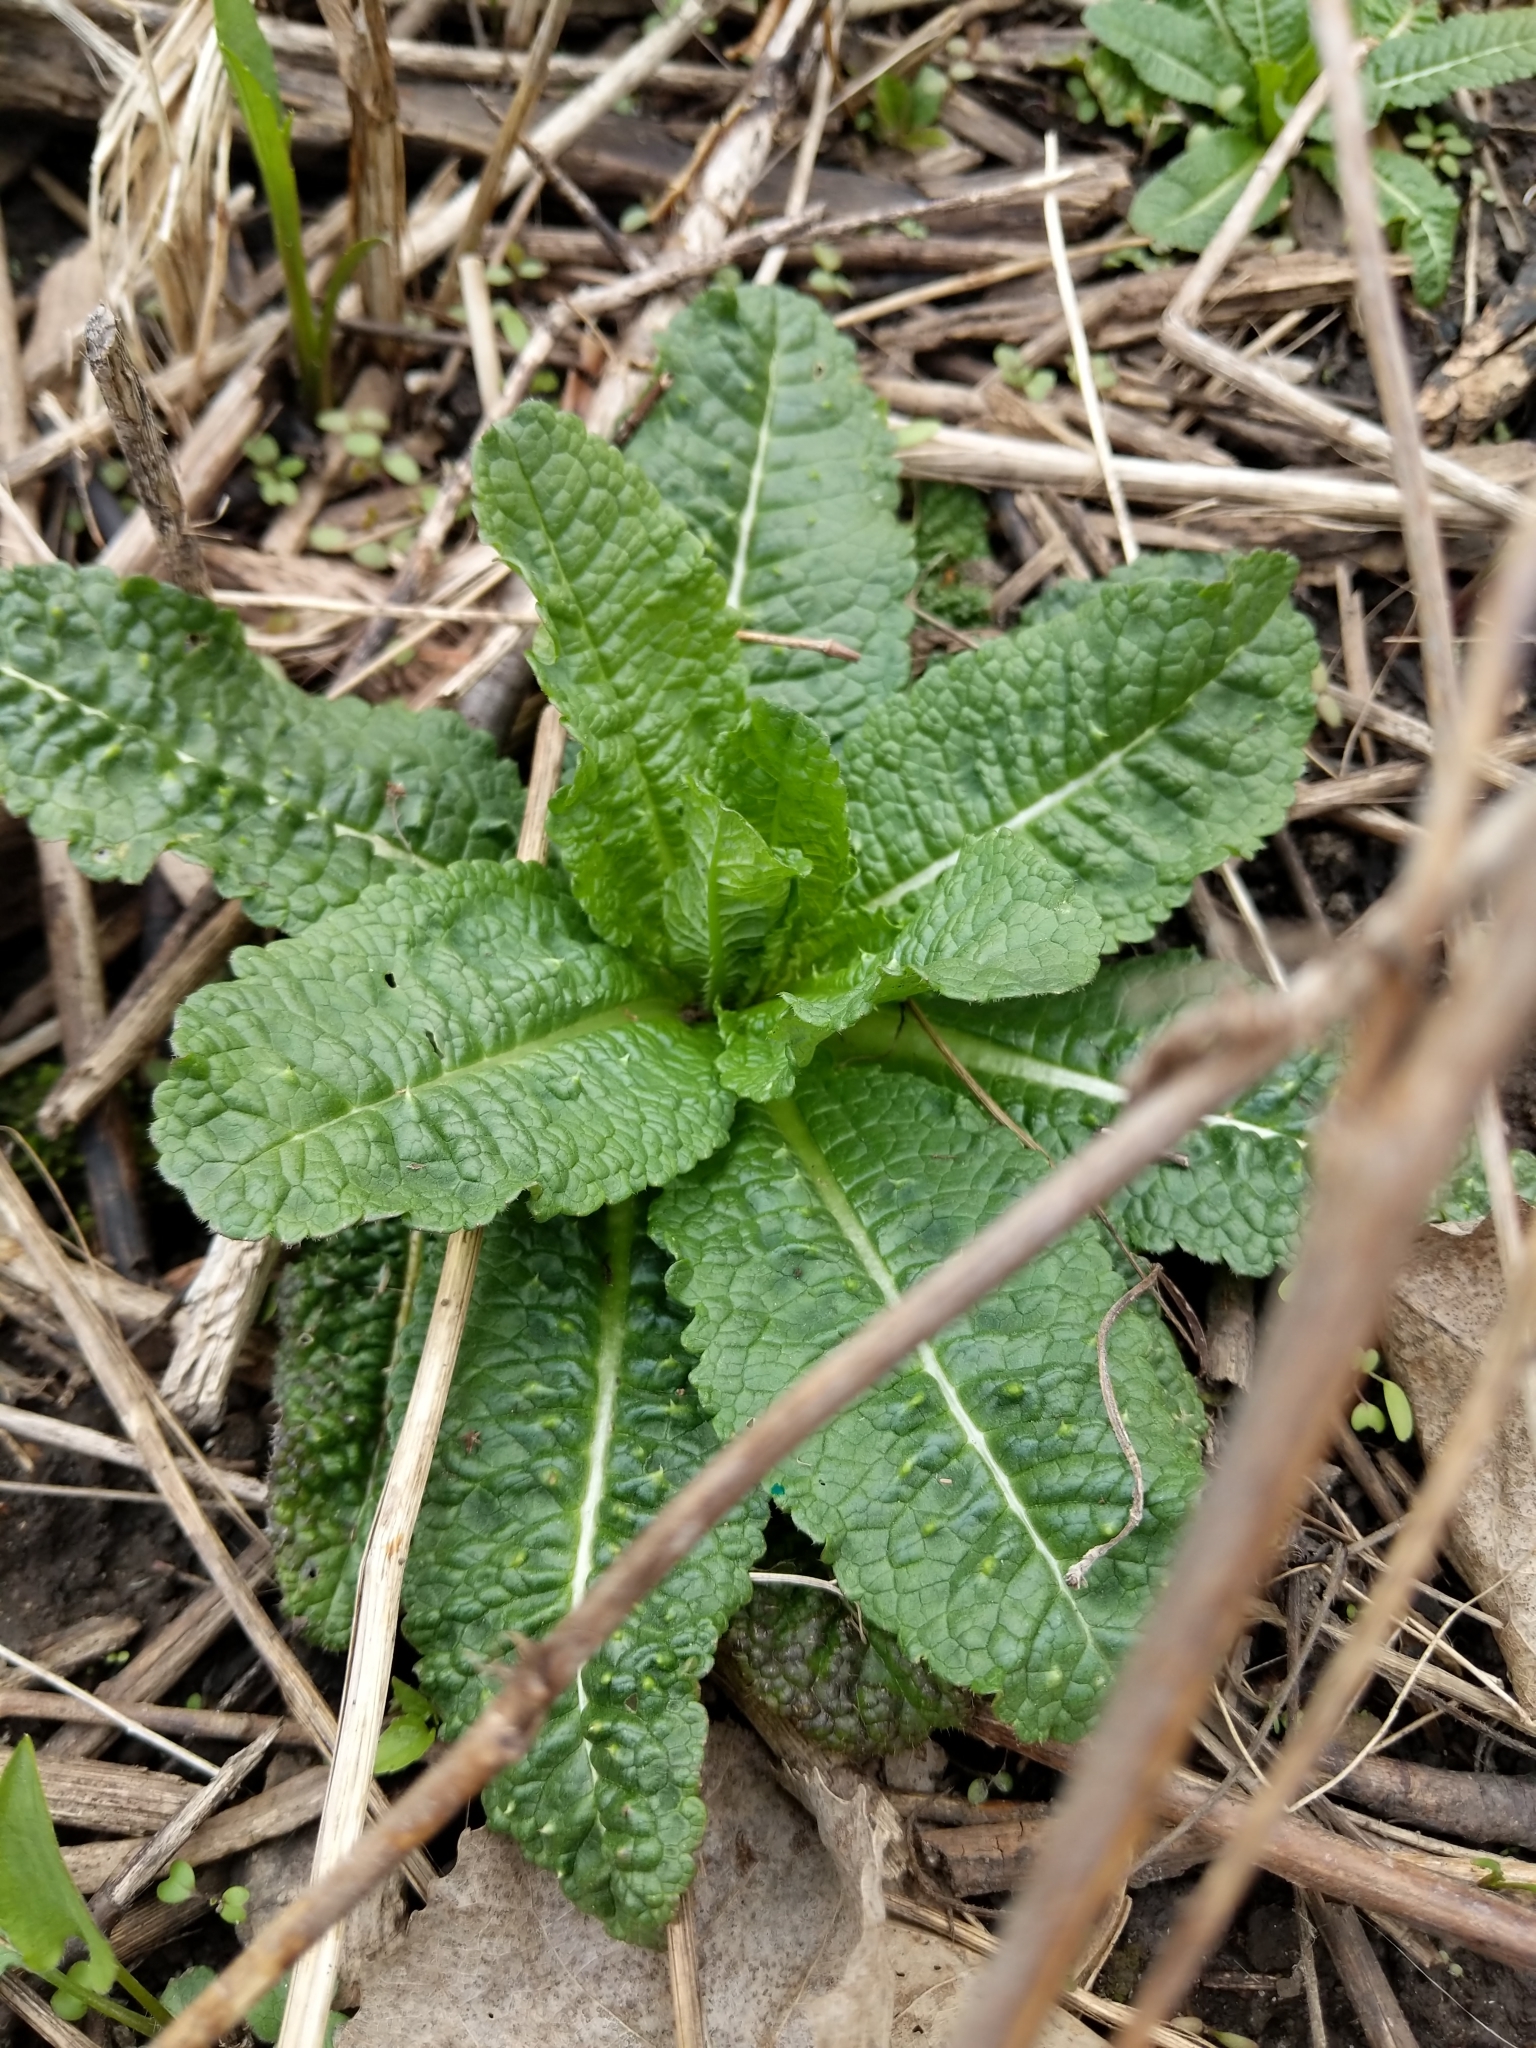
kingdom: Plantae
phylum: Tracheophyta
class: Magnoliopsida
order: Dipsacales
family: Caprifoliaceae
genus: Dipsacus
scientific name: Dipsacus fullonum
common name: Teasel
